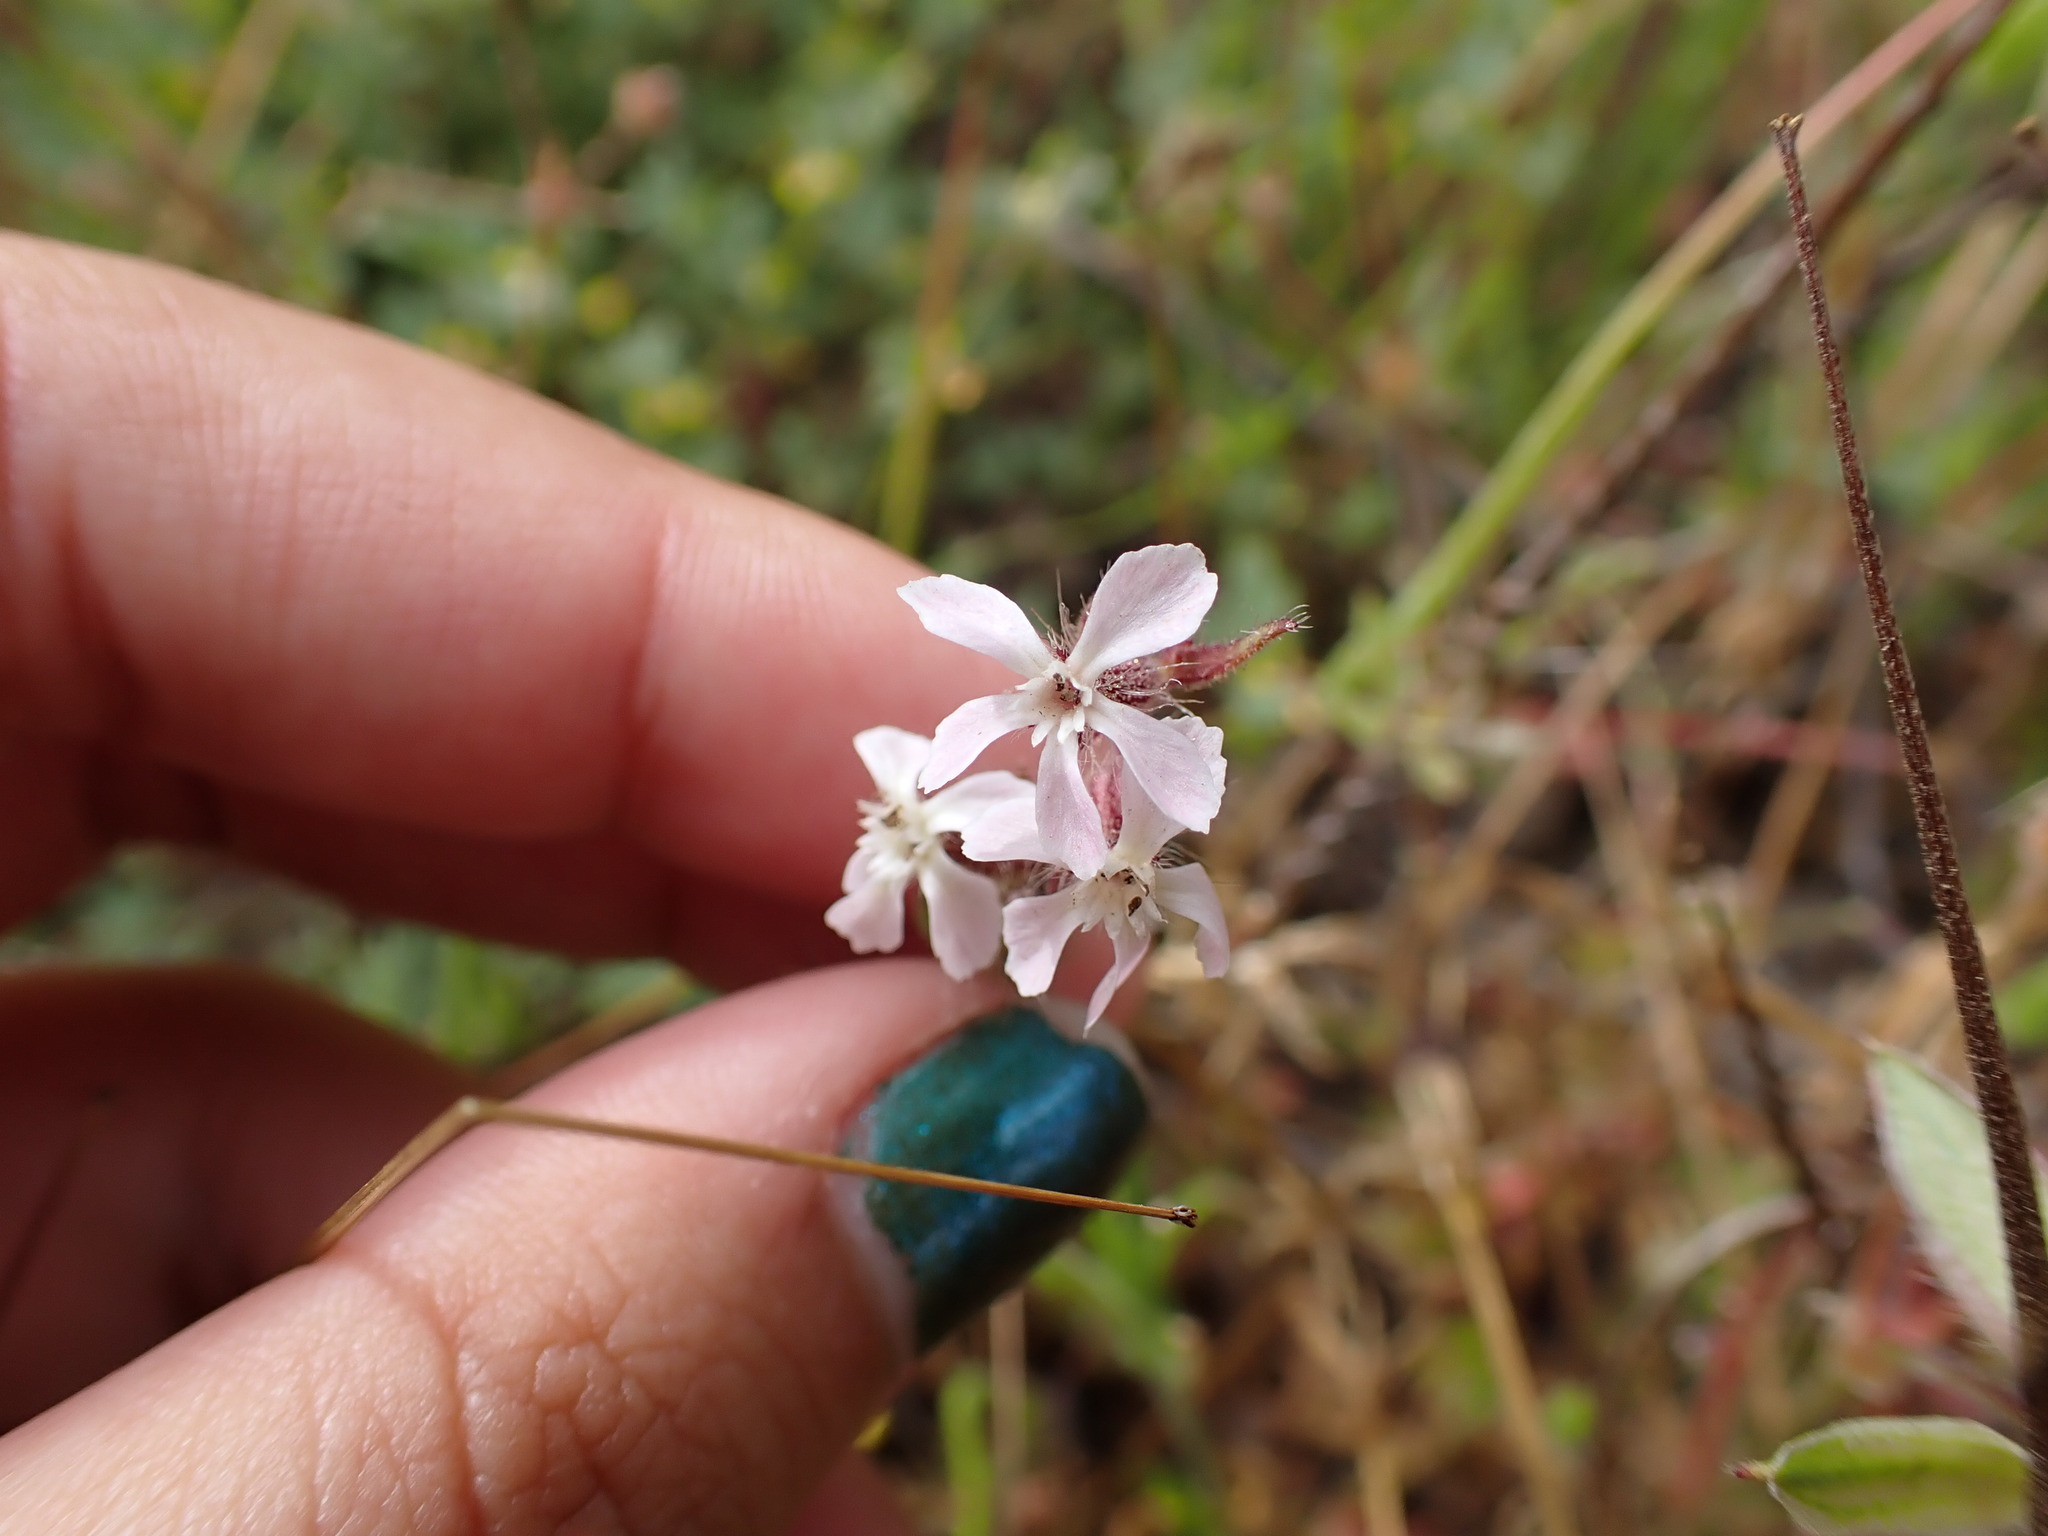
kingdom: Plantae
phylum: Tracheophyta
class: Magnoliopsida
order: Caryophyllales
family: Caryophyllaceae
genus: Silene
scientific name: Silene gallica
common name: Small-flowered catchfly
